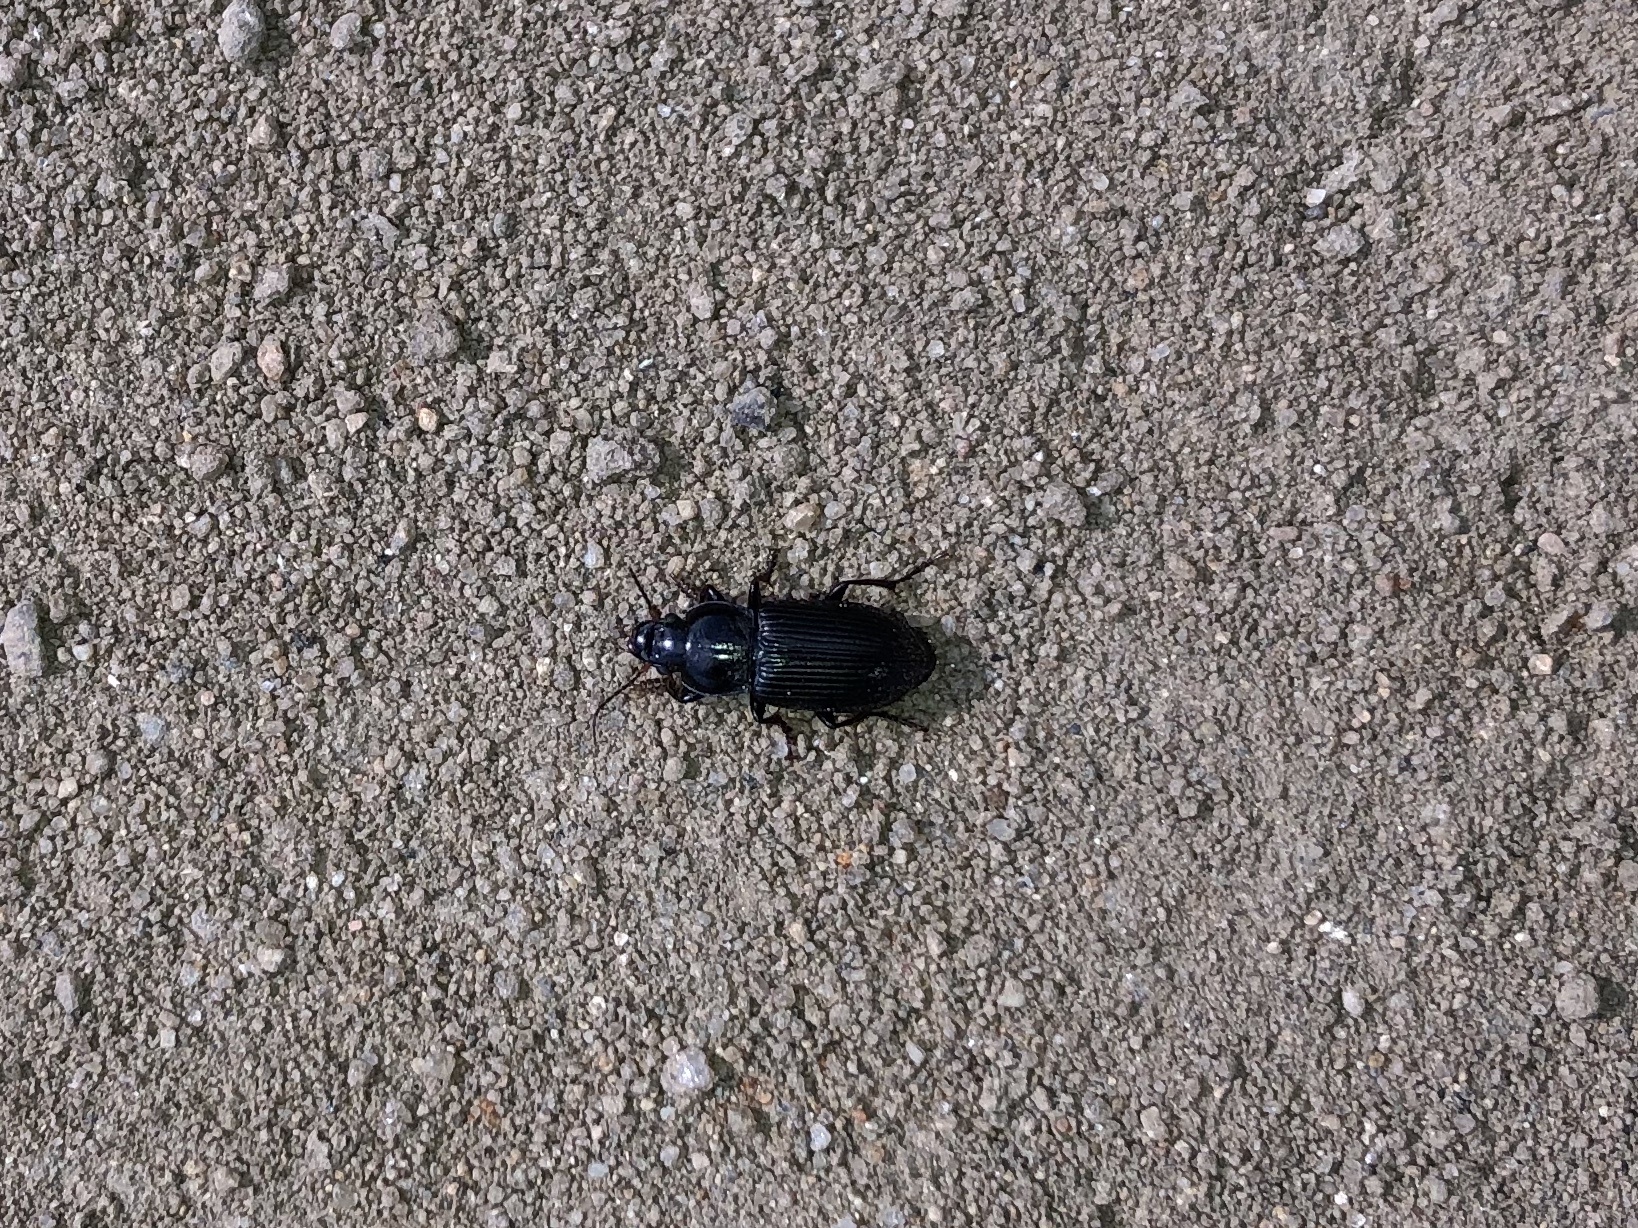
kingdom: Animalia
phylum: Arthropoda
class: Insecta
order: Coleoptera
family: Carabidae
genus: Anisodactylus
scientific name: Anisodactylus binotatus
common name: Two-marked harp ground beetle
